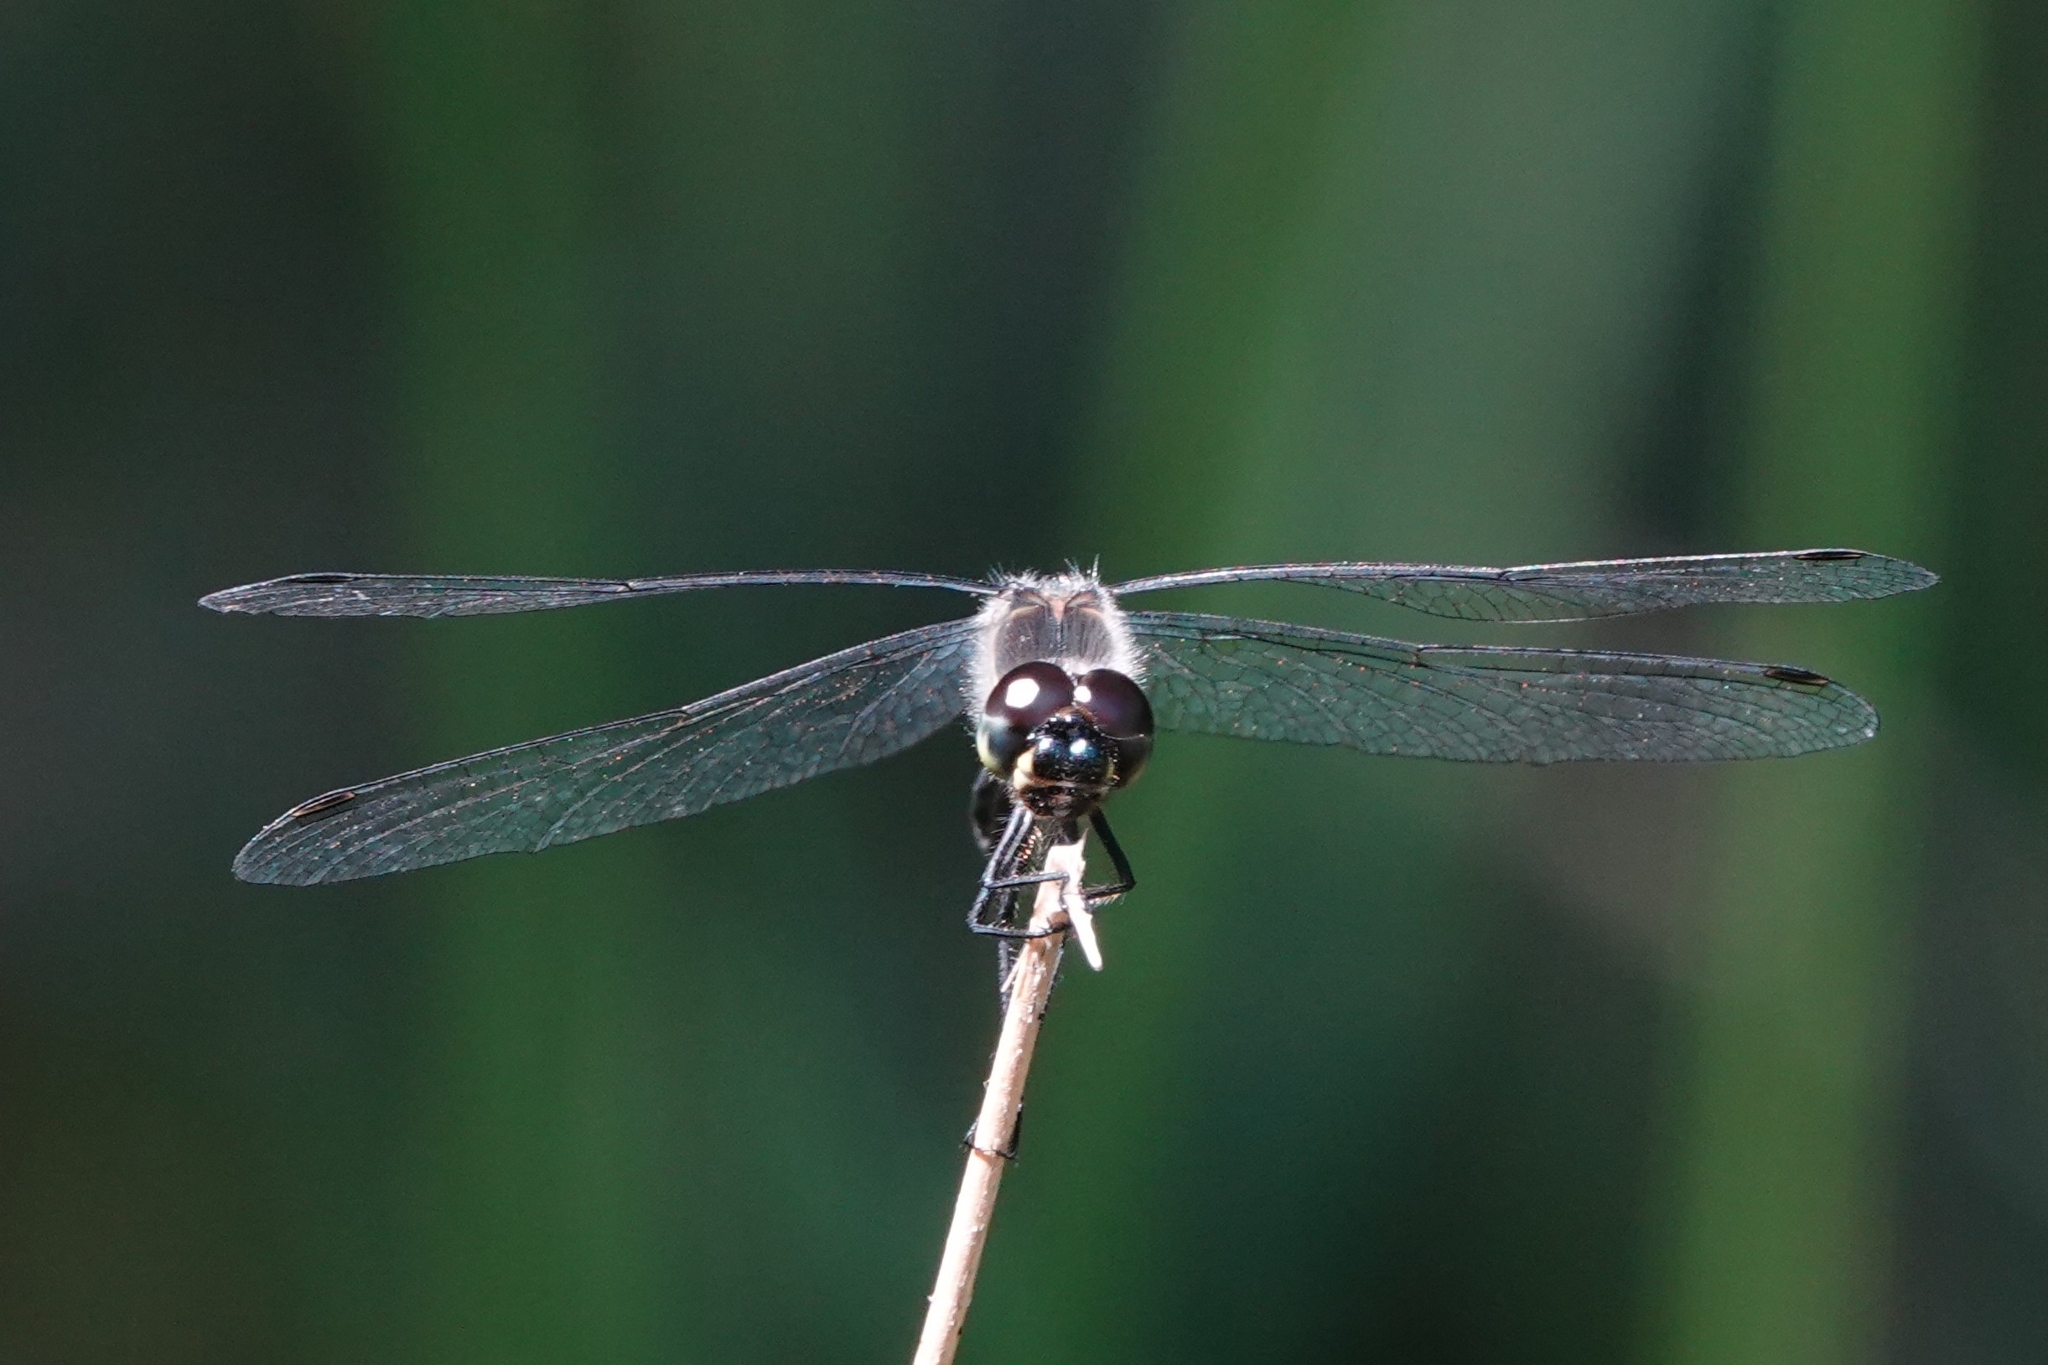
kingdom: Animalia
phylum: Arthropoda
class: Insecta
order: Odonata
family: Libellulidae
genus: Sympetrum
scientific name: Sympetrum danae
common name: Black darter
